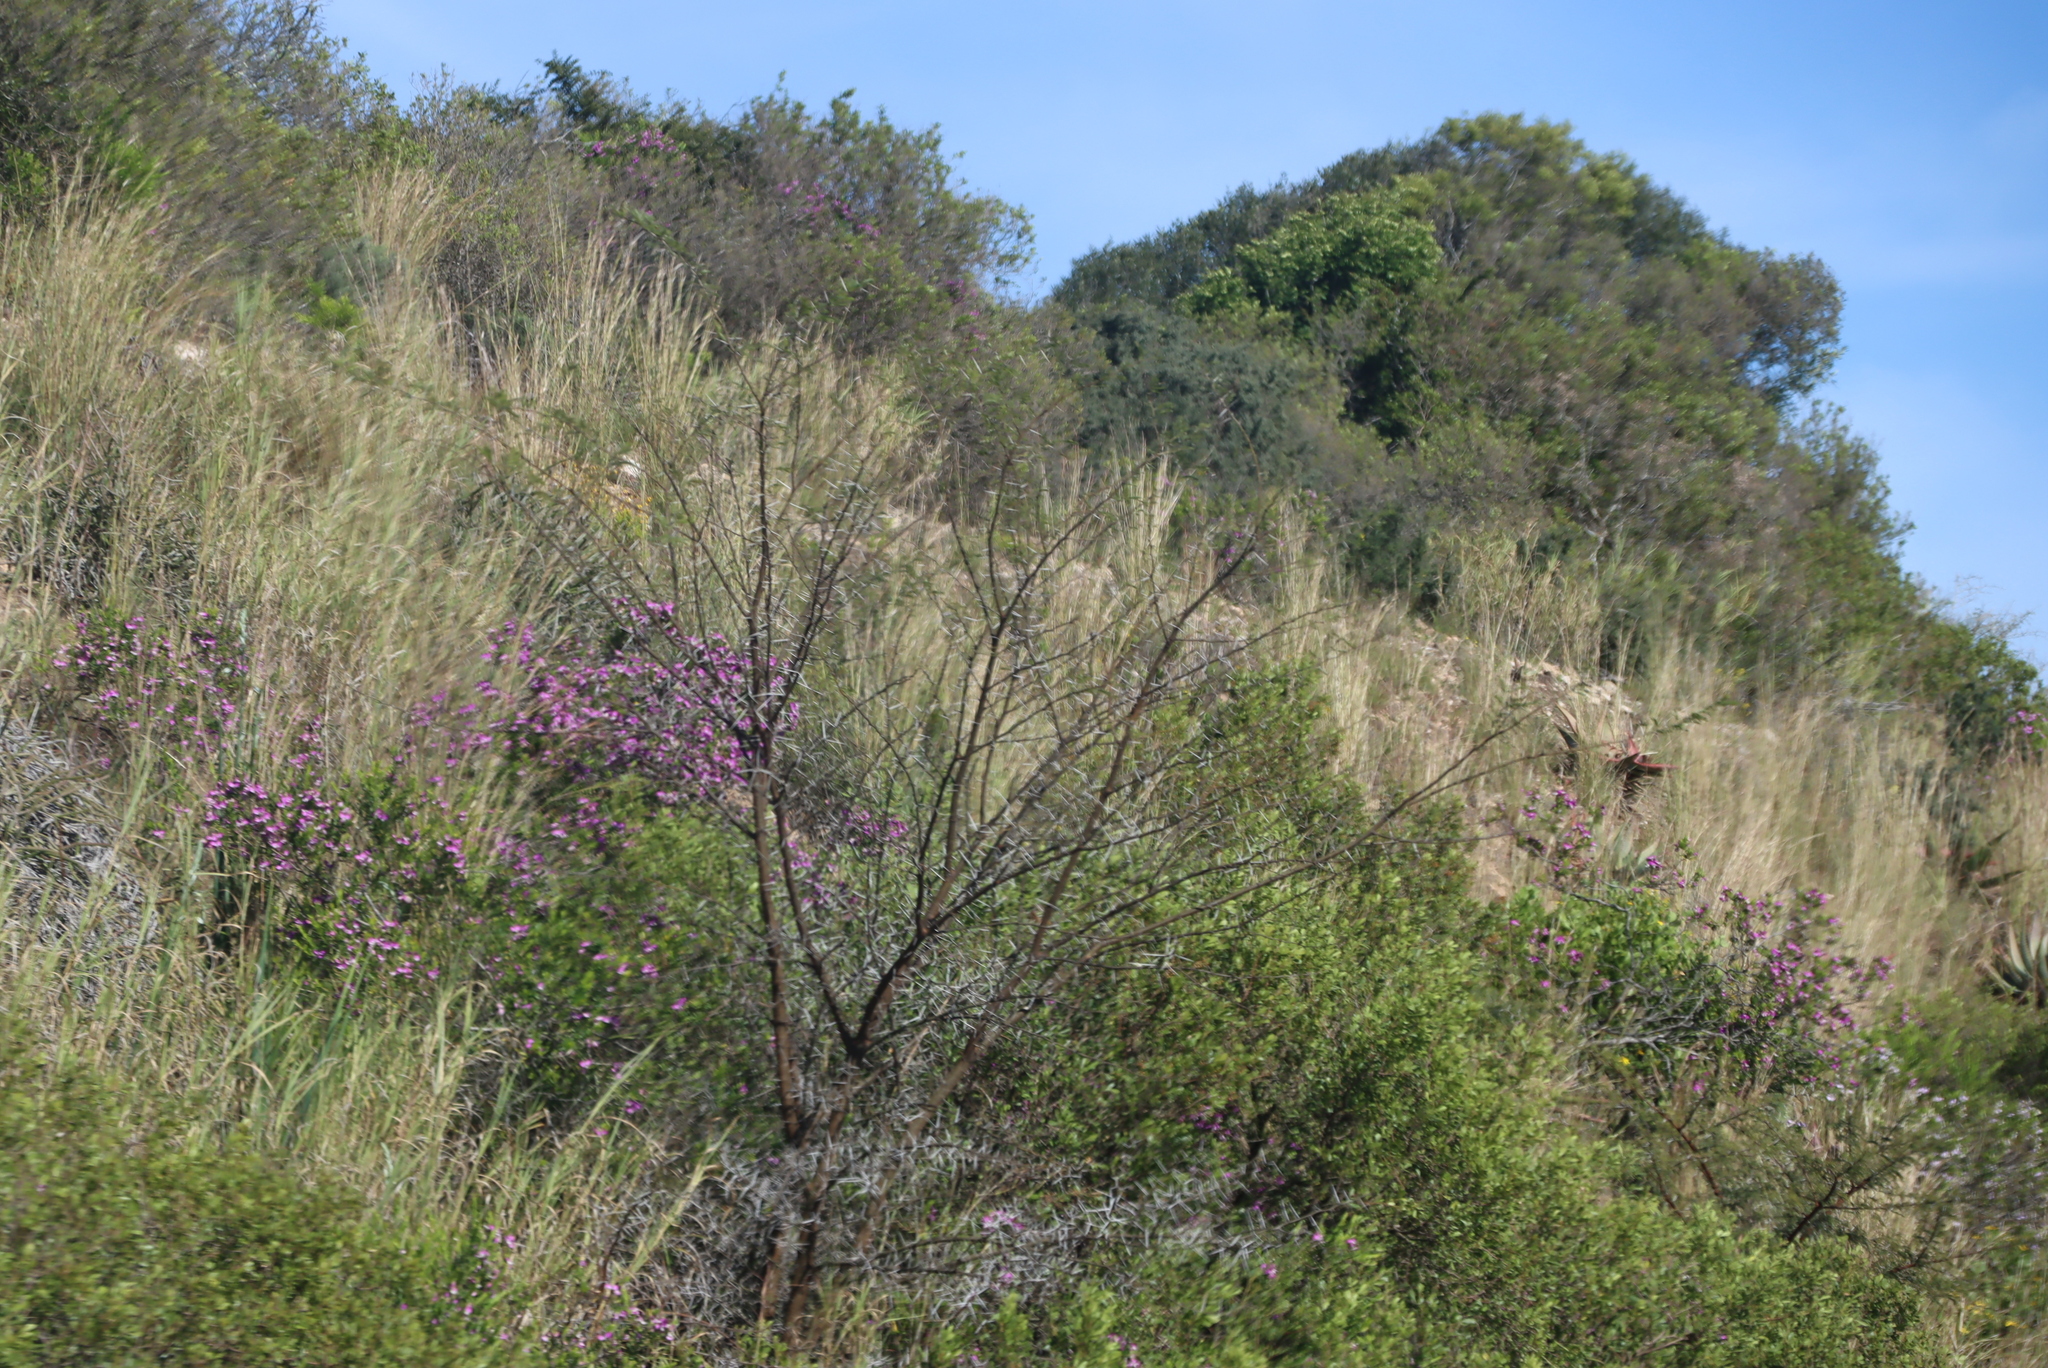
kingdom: Plantae
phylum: Tracheophyta
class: Magnoliopsida
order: Fabales
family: Fabaceae
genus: Vachellia
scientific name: Vachellia karroo
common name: Sweet thorn
